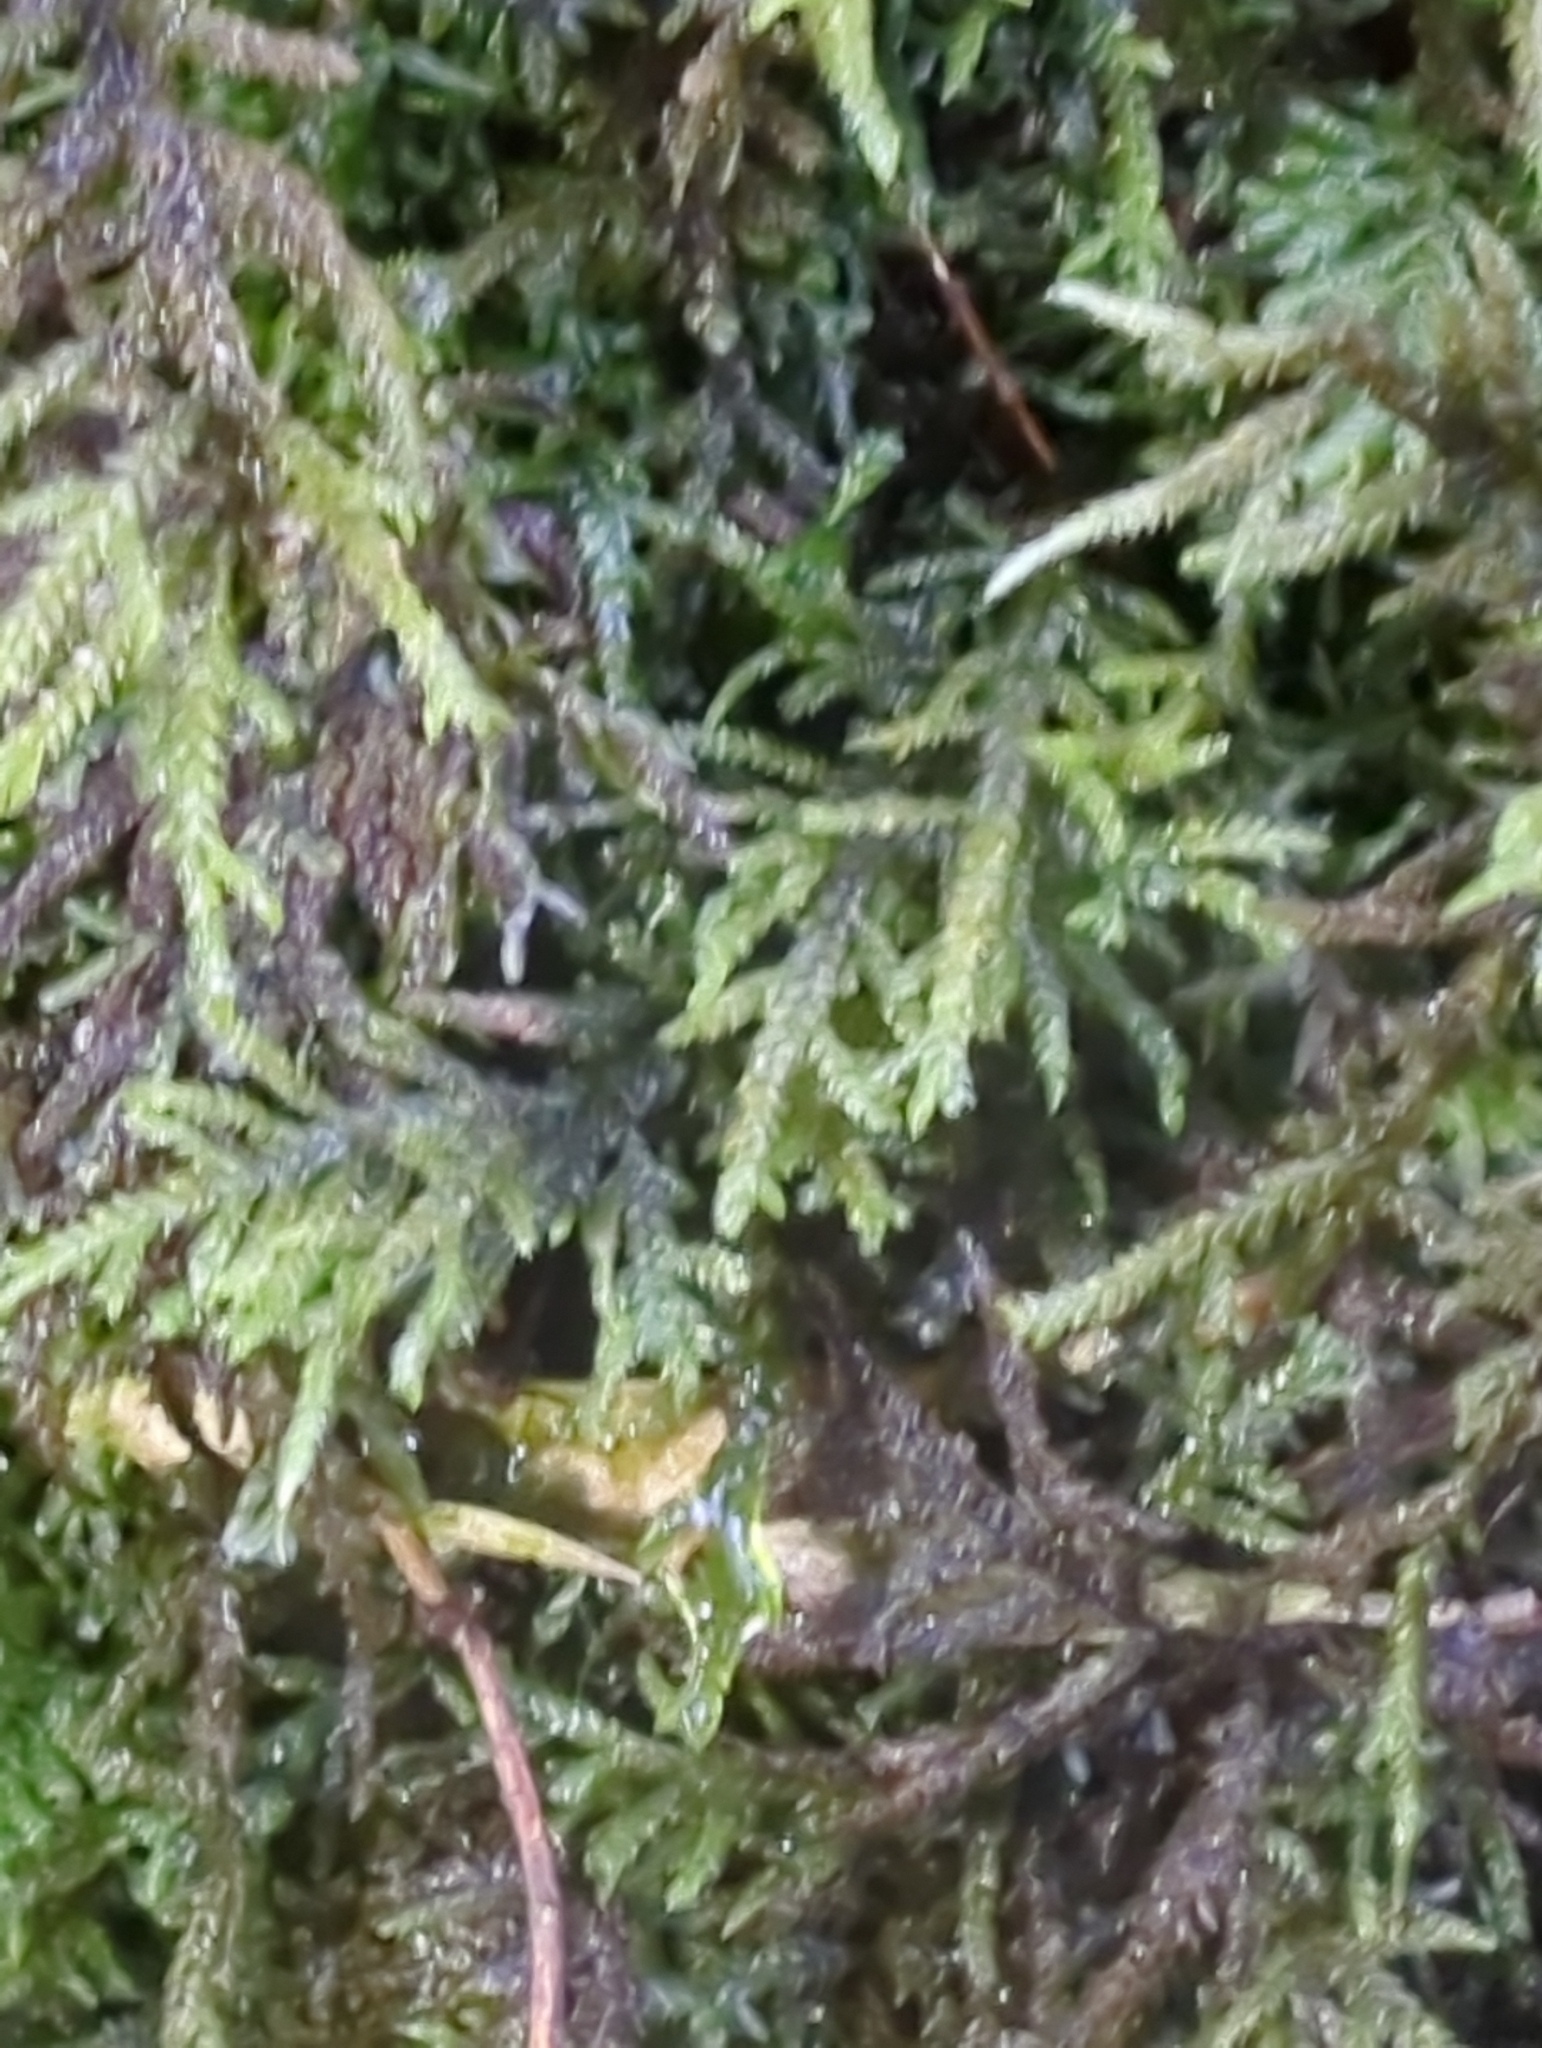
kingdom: Plantae
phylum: Bryophyta
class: Bryopsida
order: Hypnales
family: Lembophyllaceae
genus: Camptochaete
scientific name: Camptochaete deflexa
